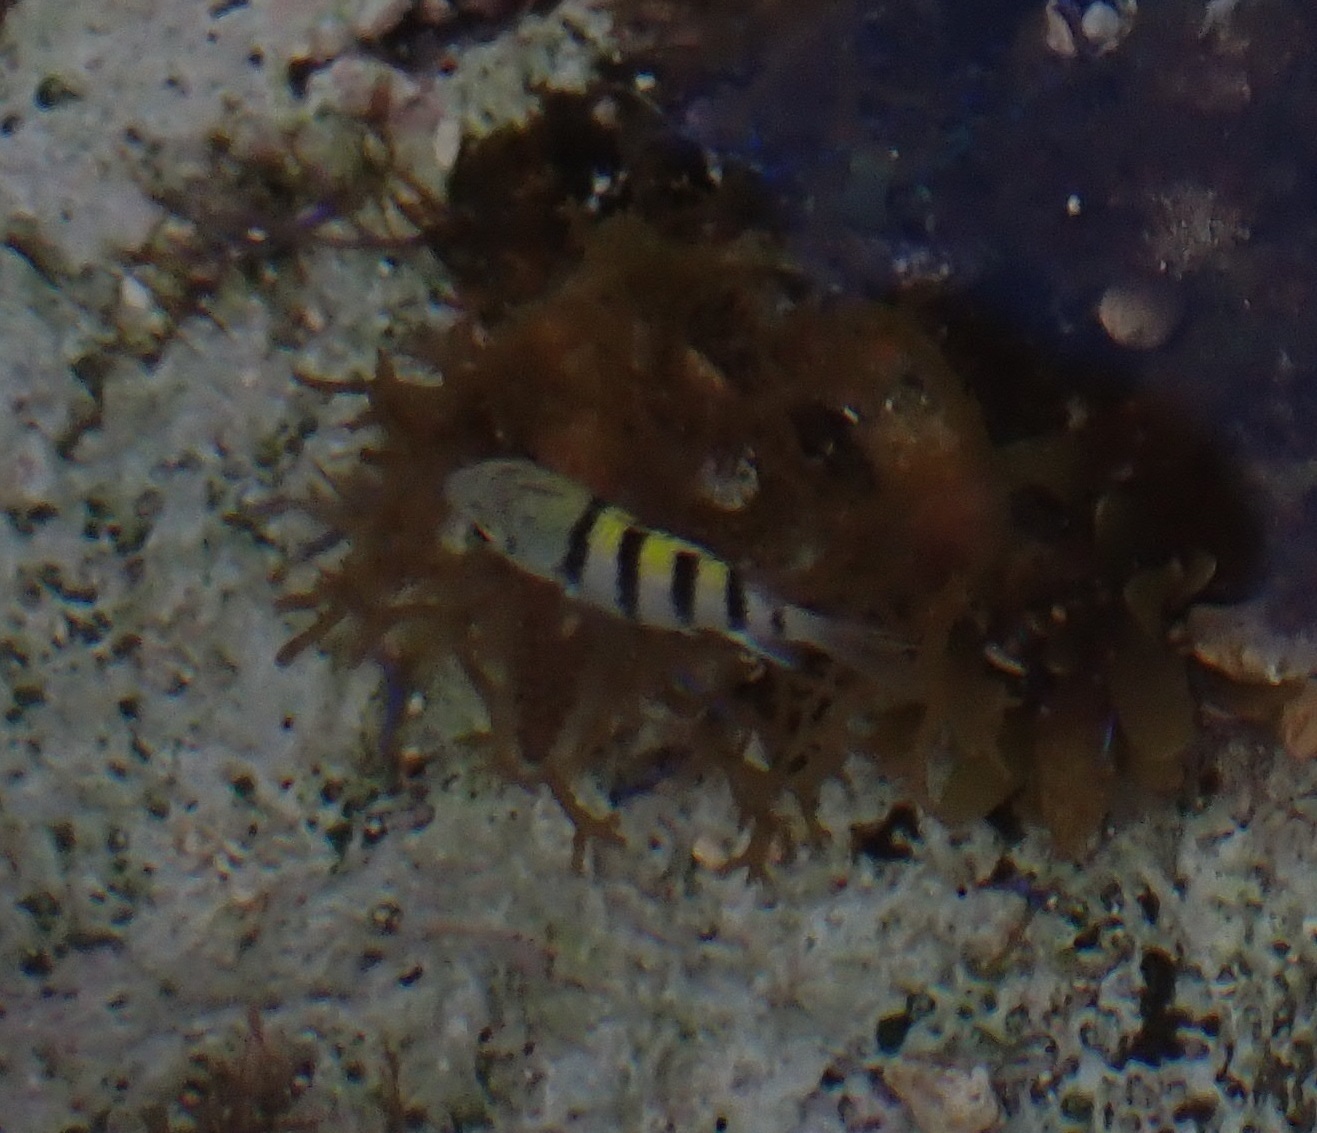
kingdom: Animalia
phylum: Chordata
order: Perciformes
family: Pomacentridae
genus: Abudefduf
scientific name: Abudefduf saxatilis
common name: Sergeant major
